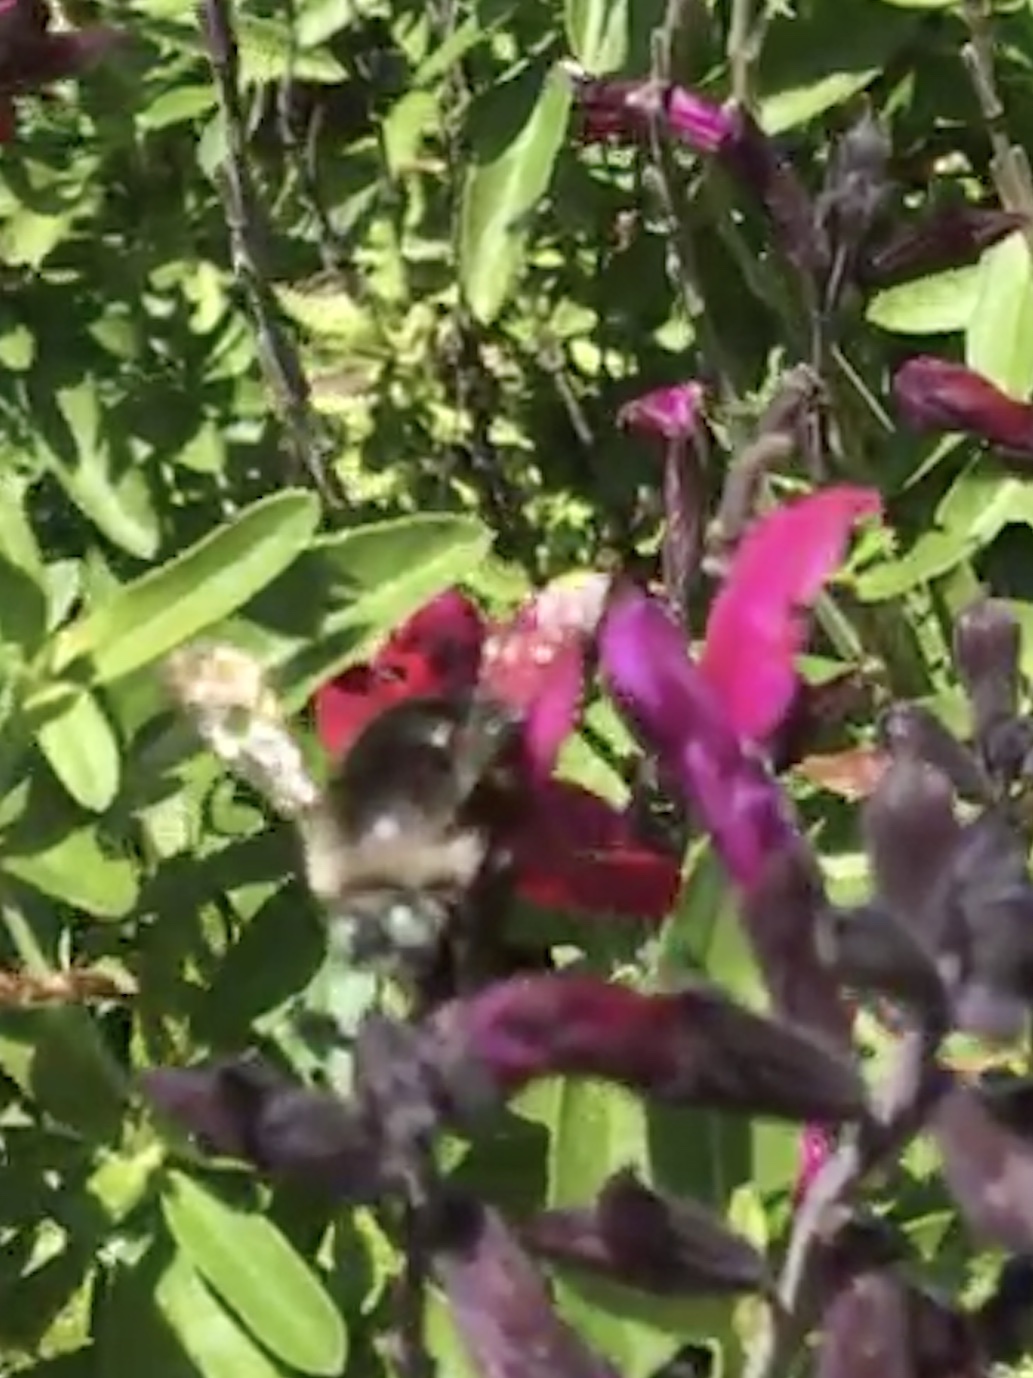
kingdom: Animalia
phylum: Arthropoda
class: Insecta
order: Hymenoptera
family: Apidae
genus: Xylocopa
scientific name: Xylocopa tabaniformis
